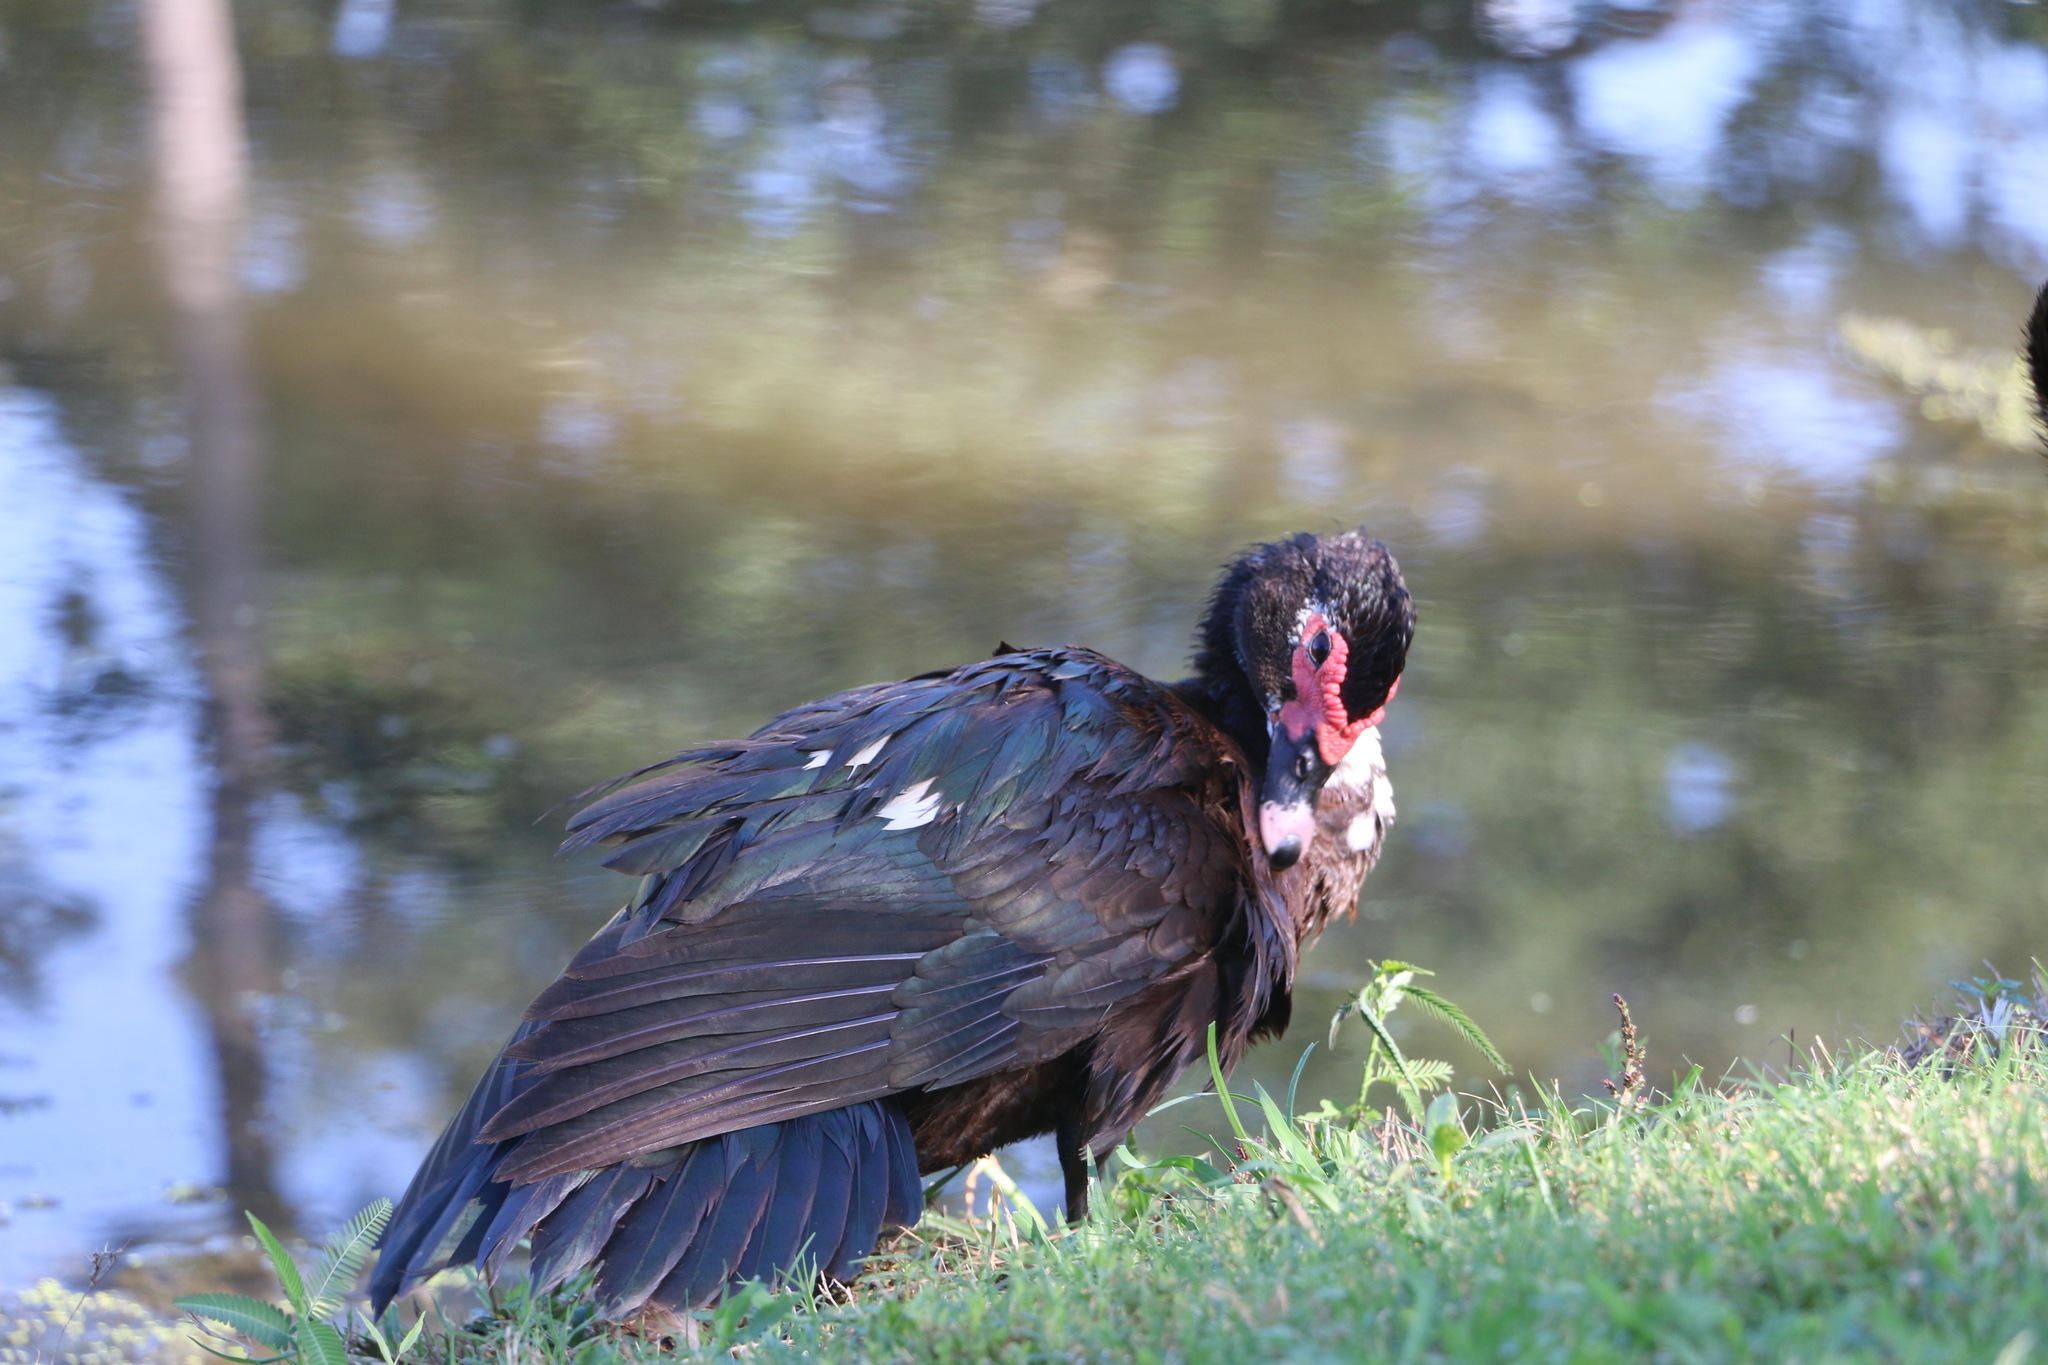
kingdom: Animalia
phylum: Chordata
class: Aves
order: Anseriformes
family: Anatidae
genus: Cairina
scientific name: Cairina moschata
